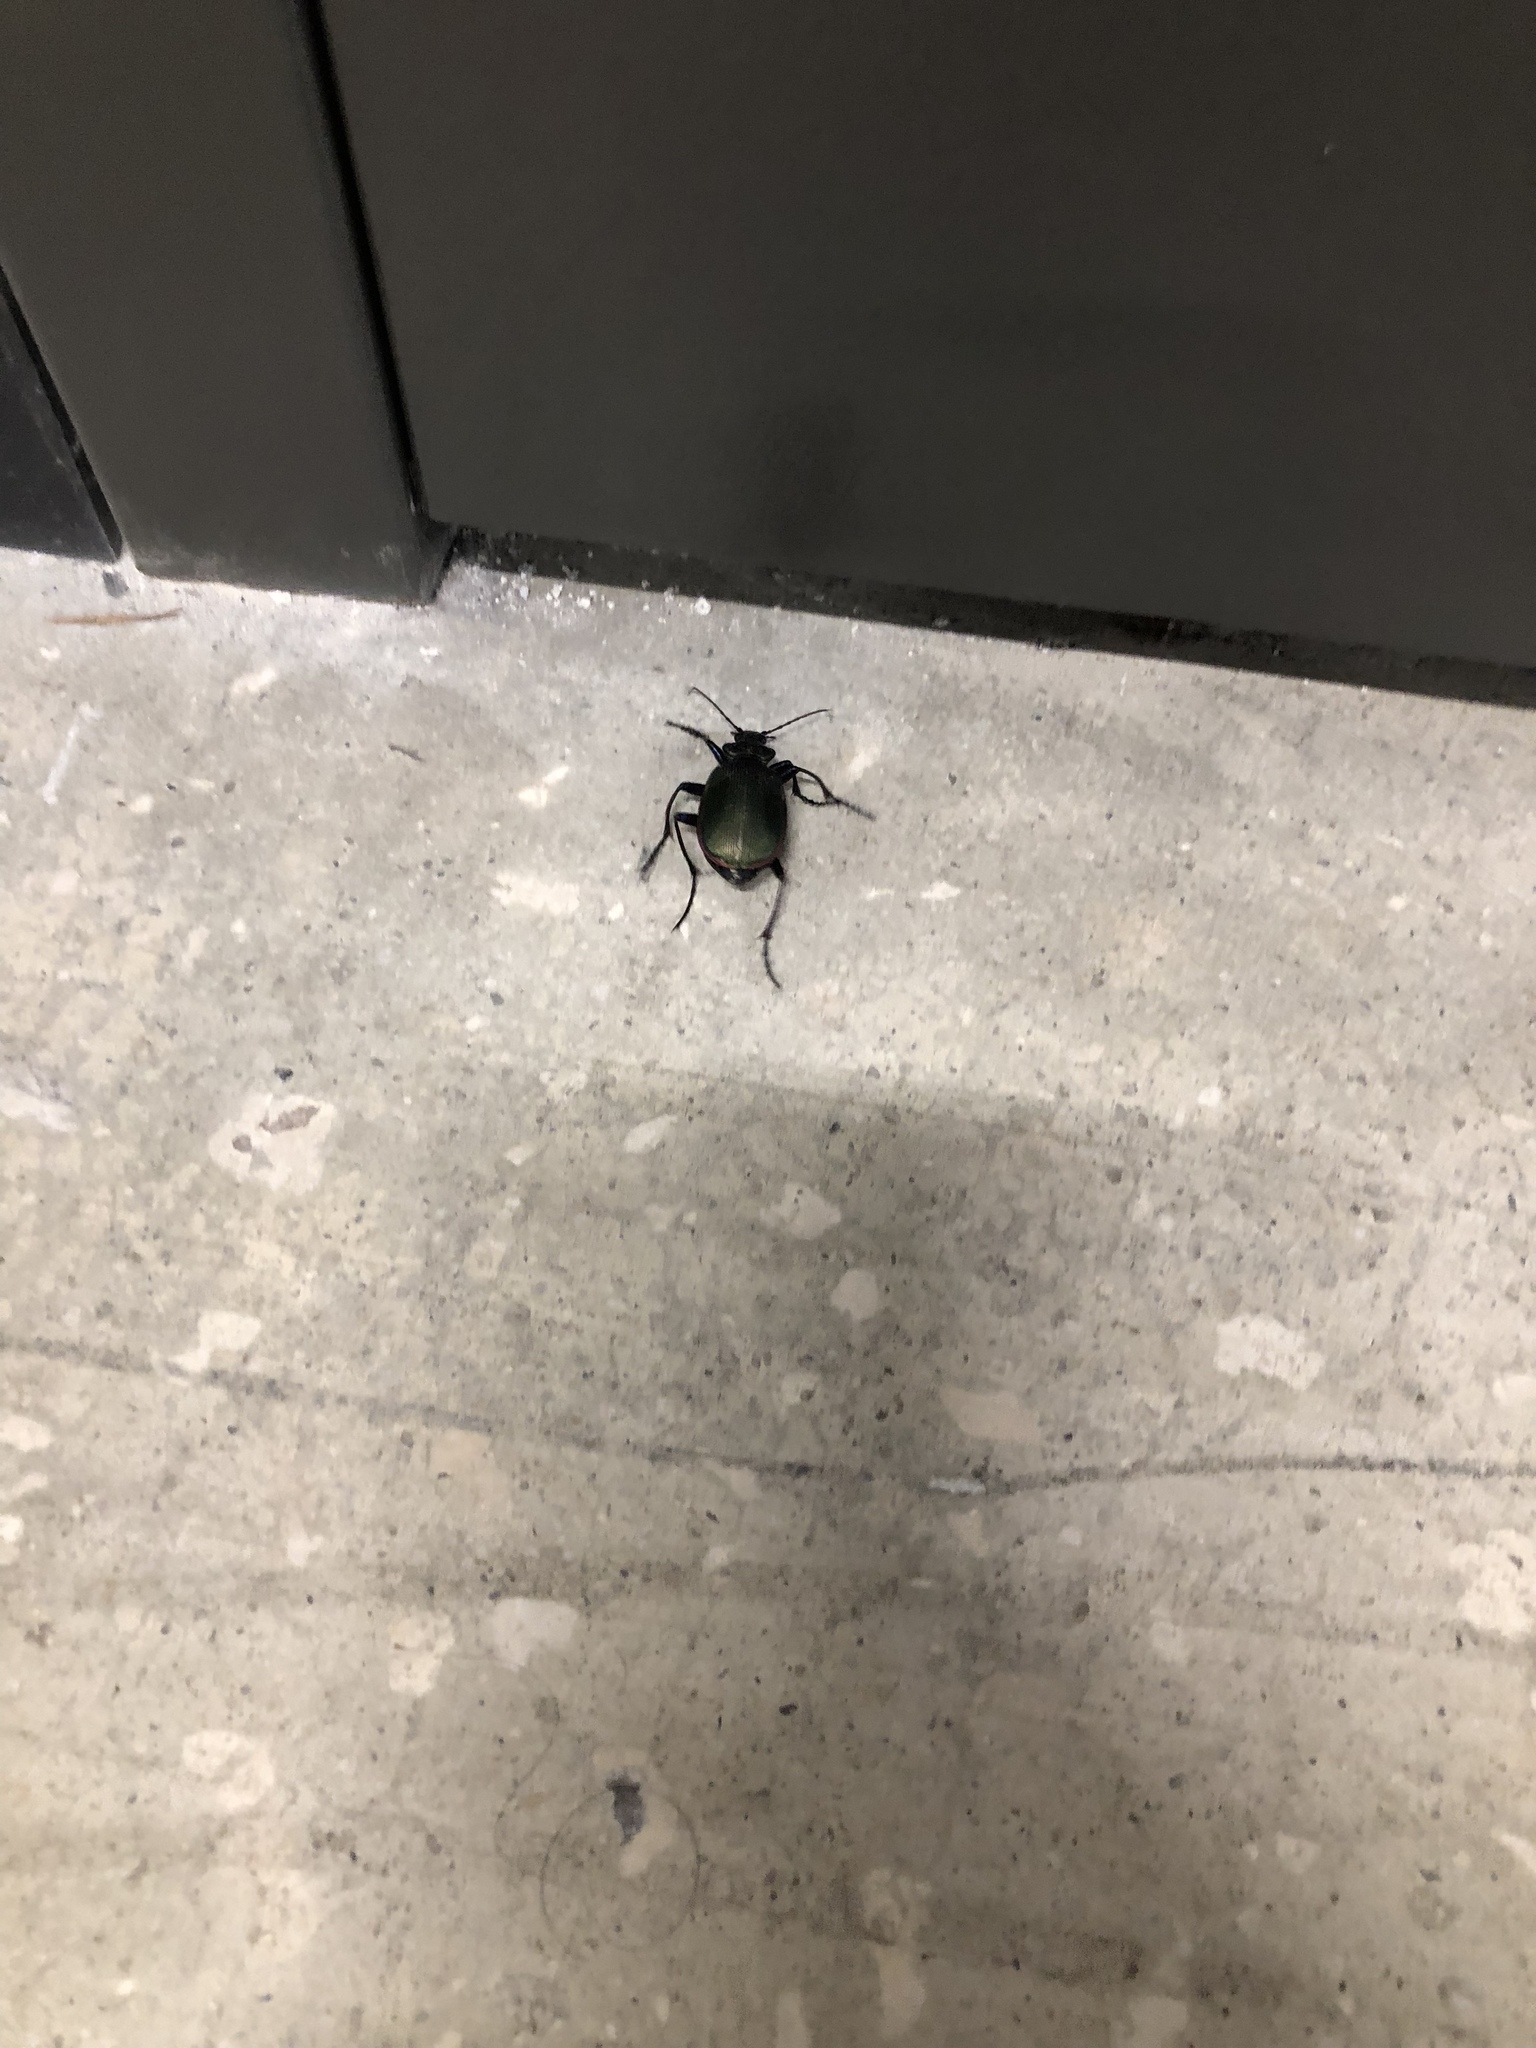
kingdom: Animalia
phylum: Arthropoda
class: Insecta
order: Coleoptera
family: Carabidae
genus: Calosoma
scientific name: Calosoma scrutator
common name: Fiery searcher beetle
